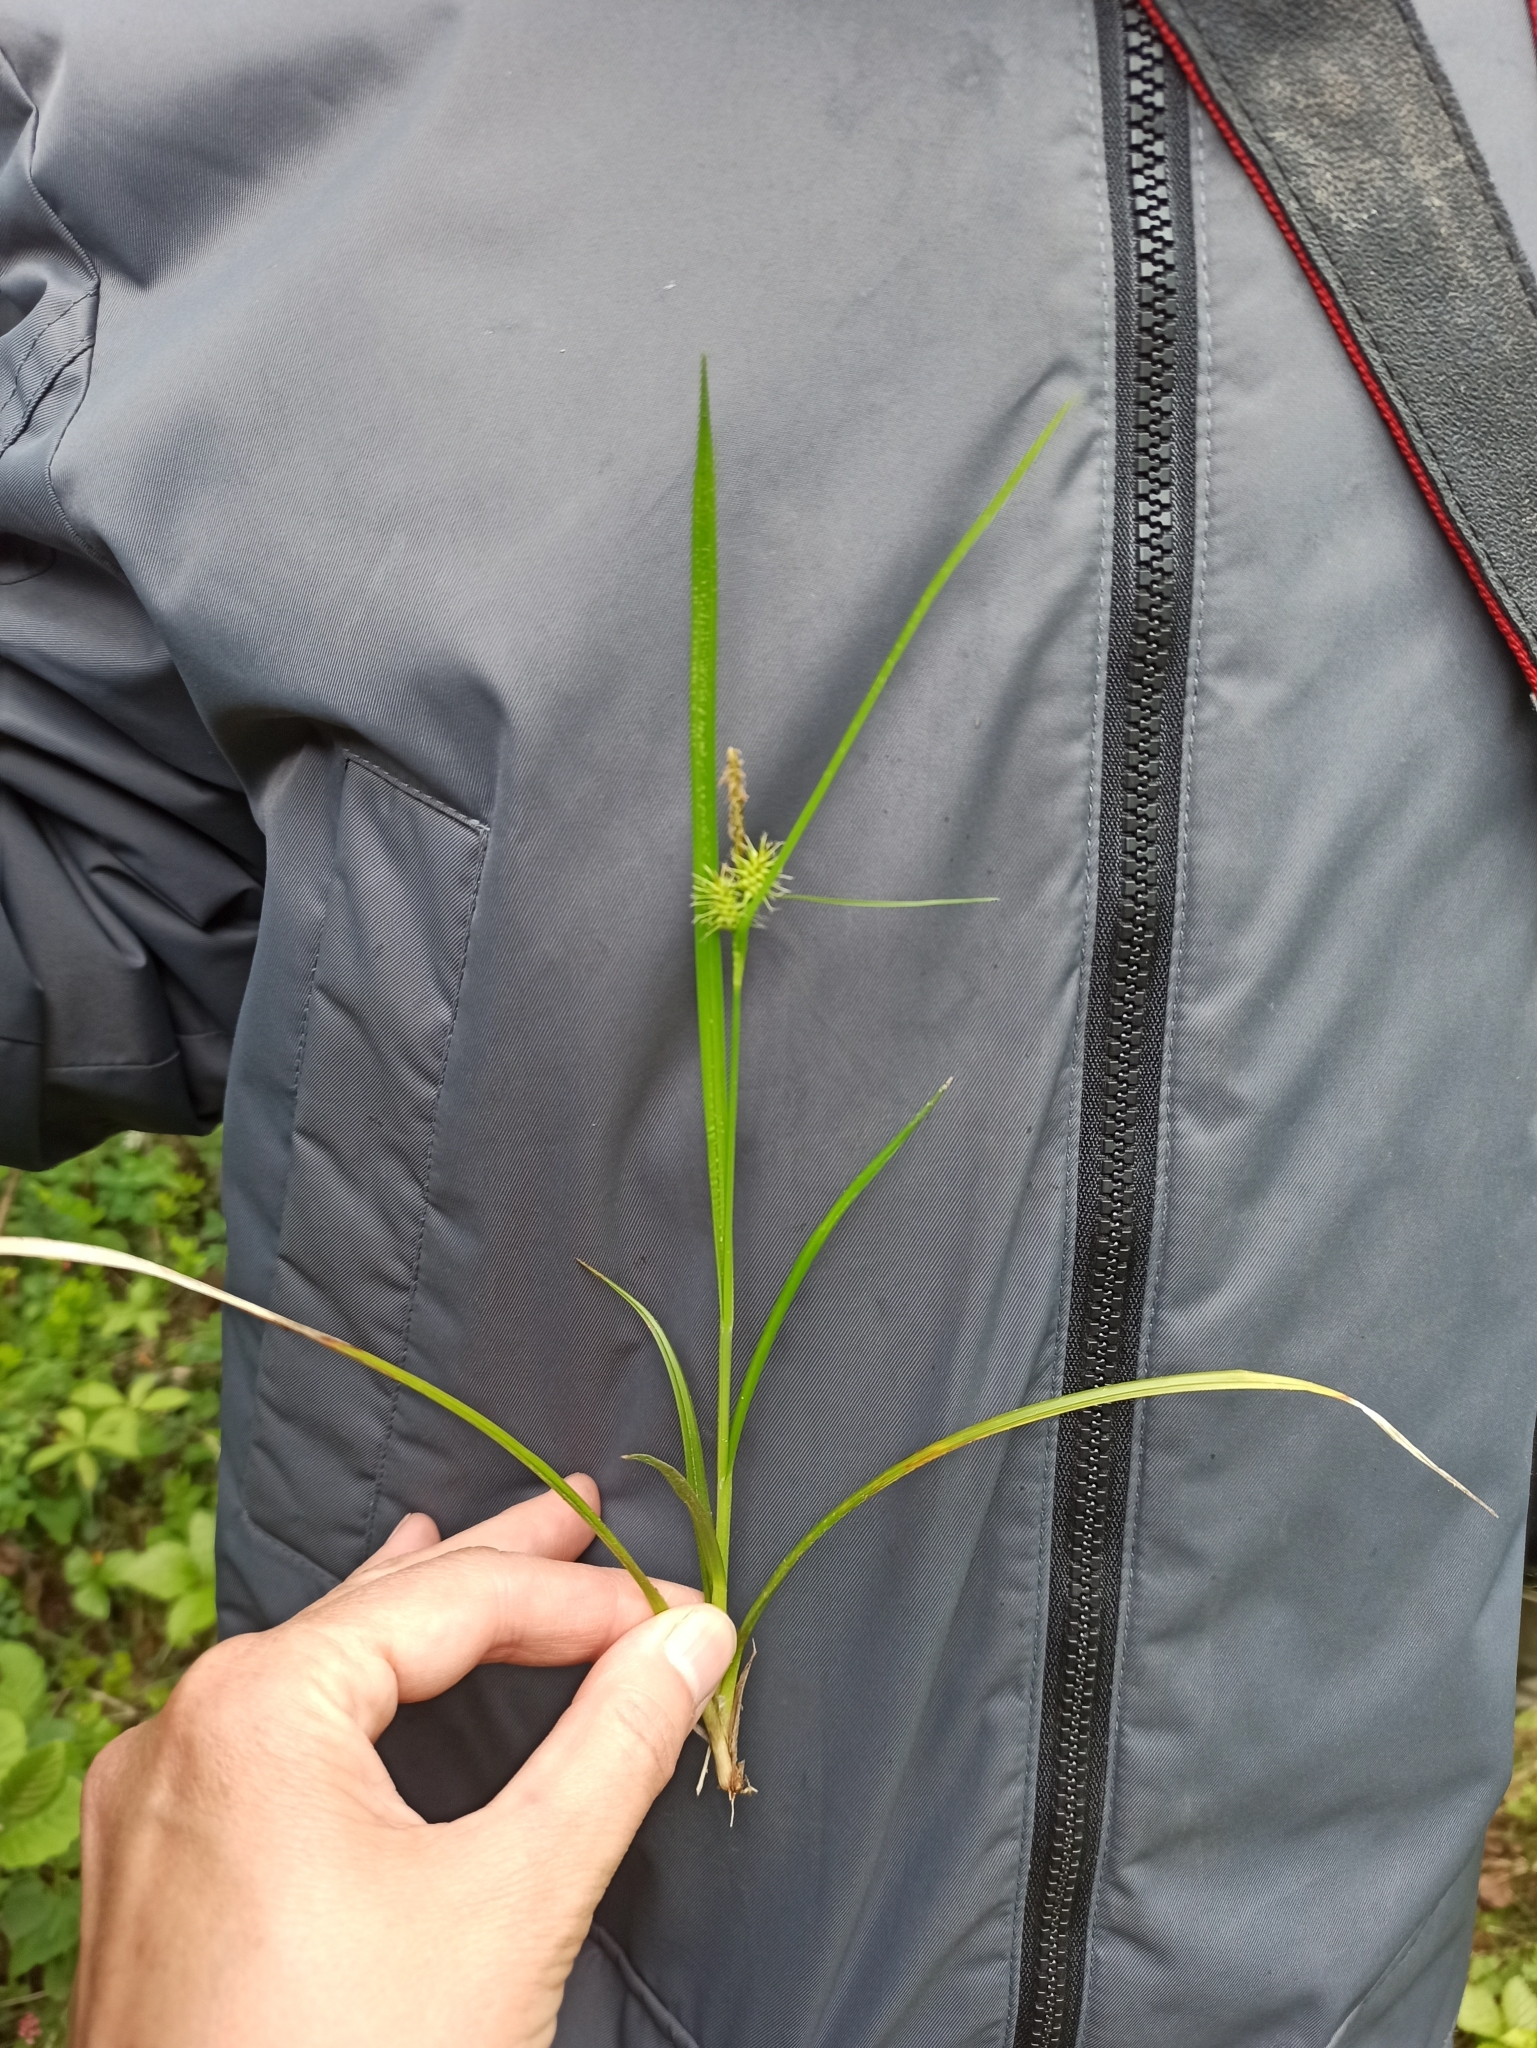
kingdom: Plantae
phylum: Tracheophyta
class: Liliopsida
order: Poales
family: Cyperaceae
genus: Carex
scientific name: Carex flava
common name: Large yellow-sedge
